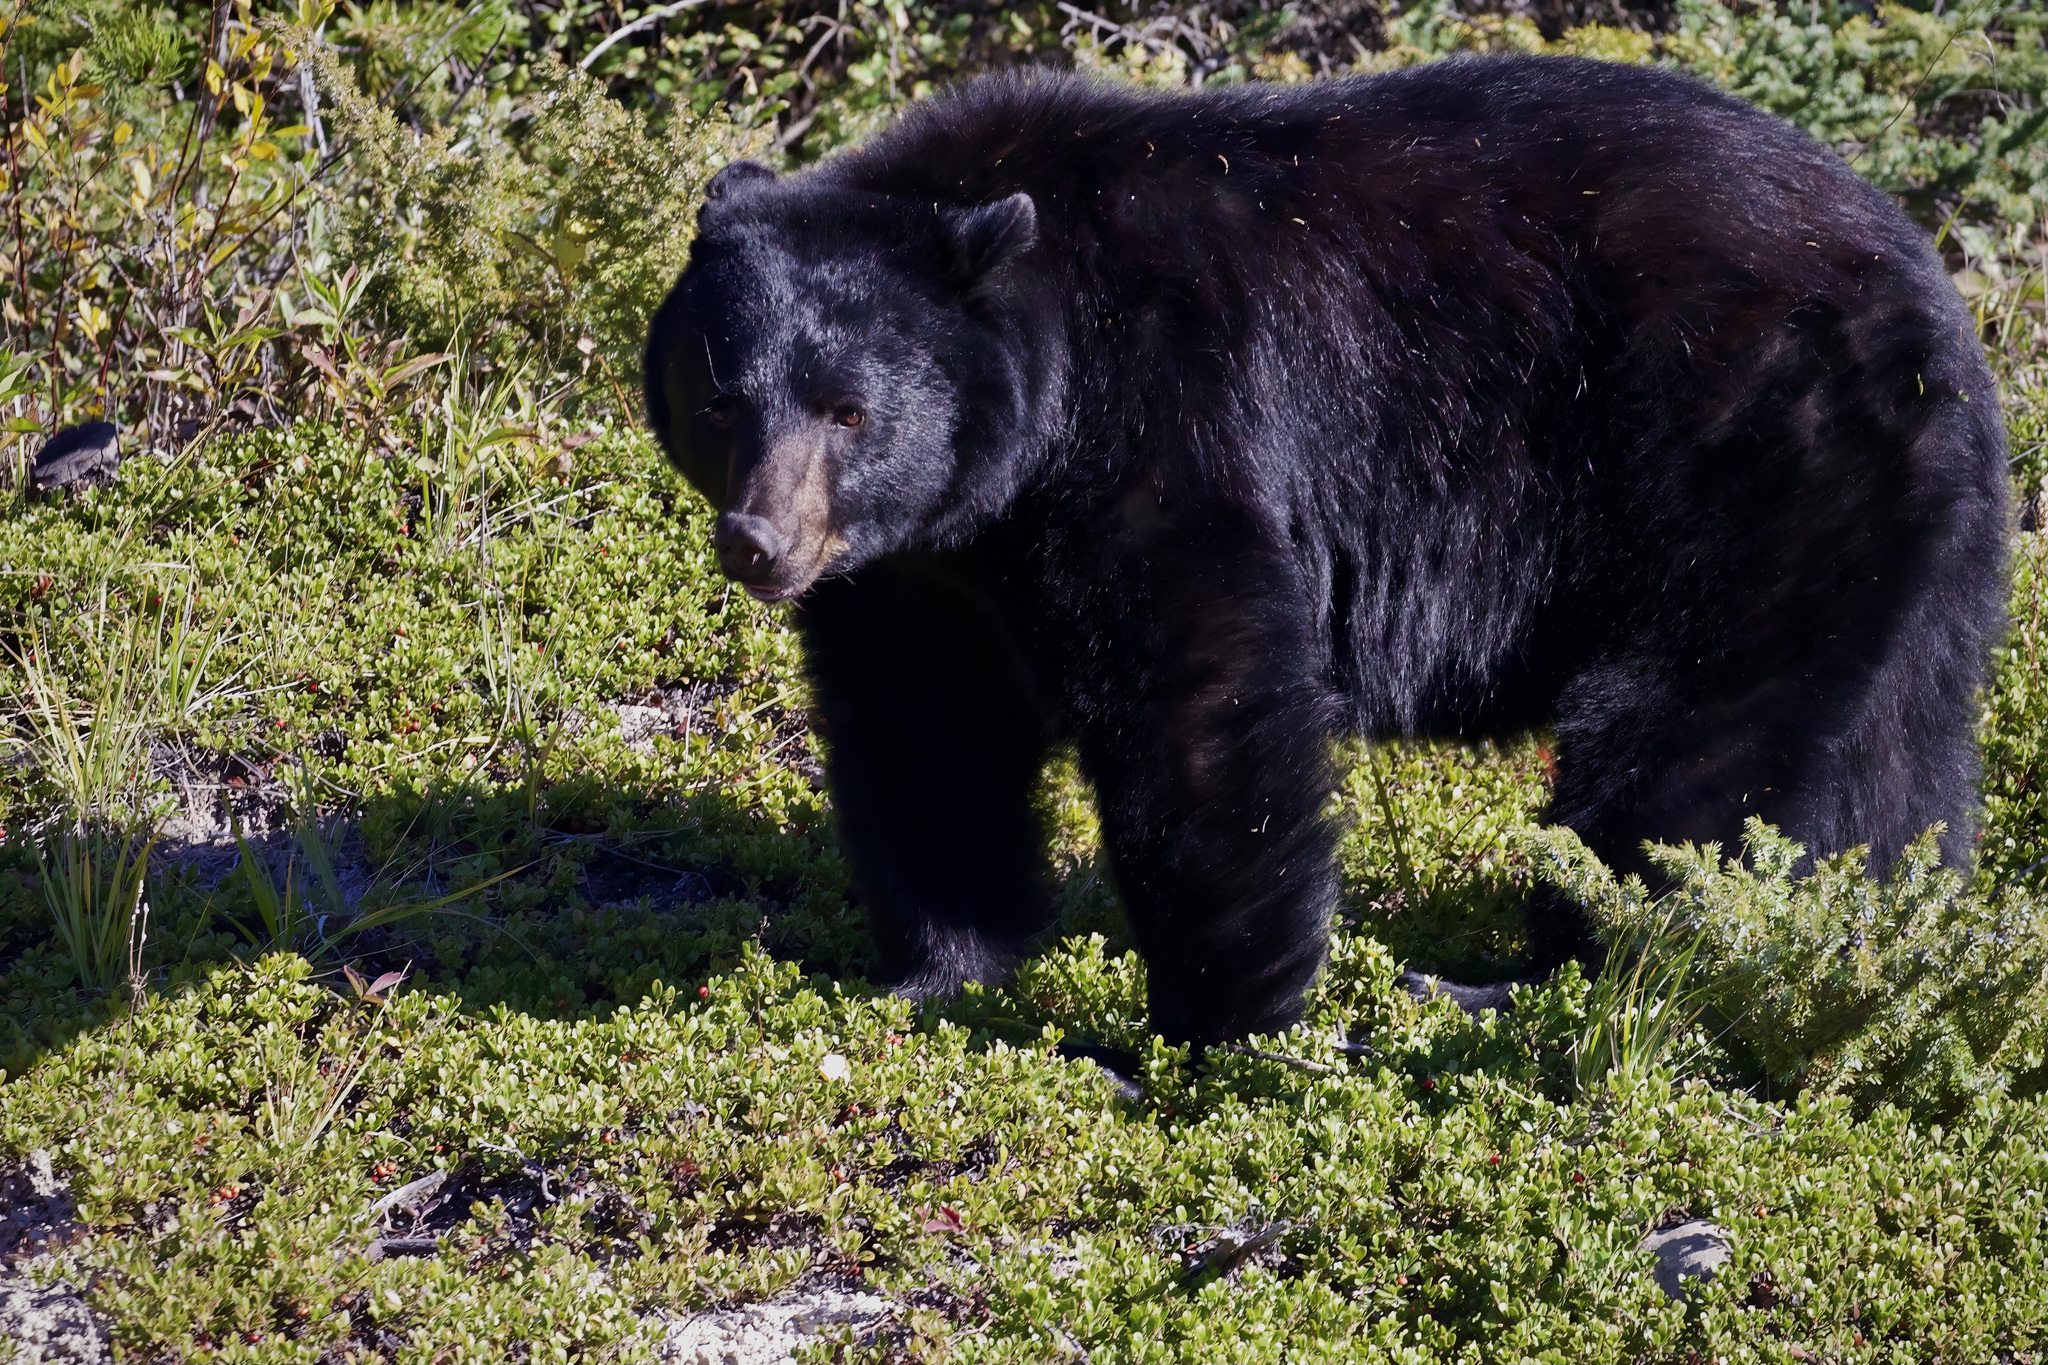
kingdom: Animalia
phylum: Chordata
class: Mammalia
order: Carnivora
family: Ursidae
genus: Ursus
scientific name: Ursus americanus
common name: American black bear
